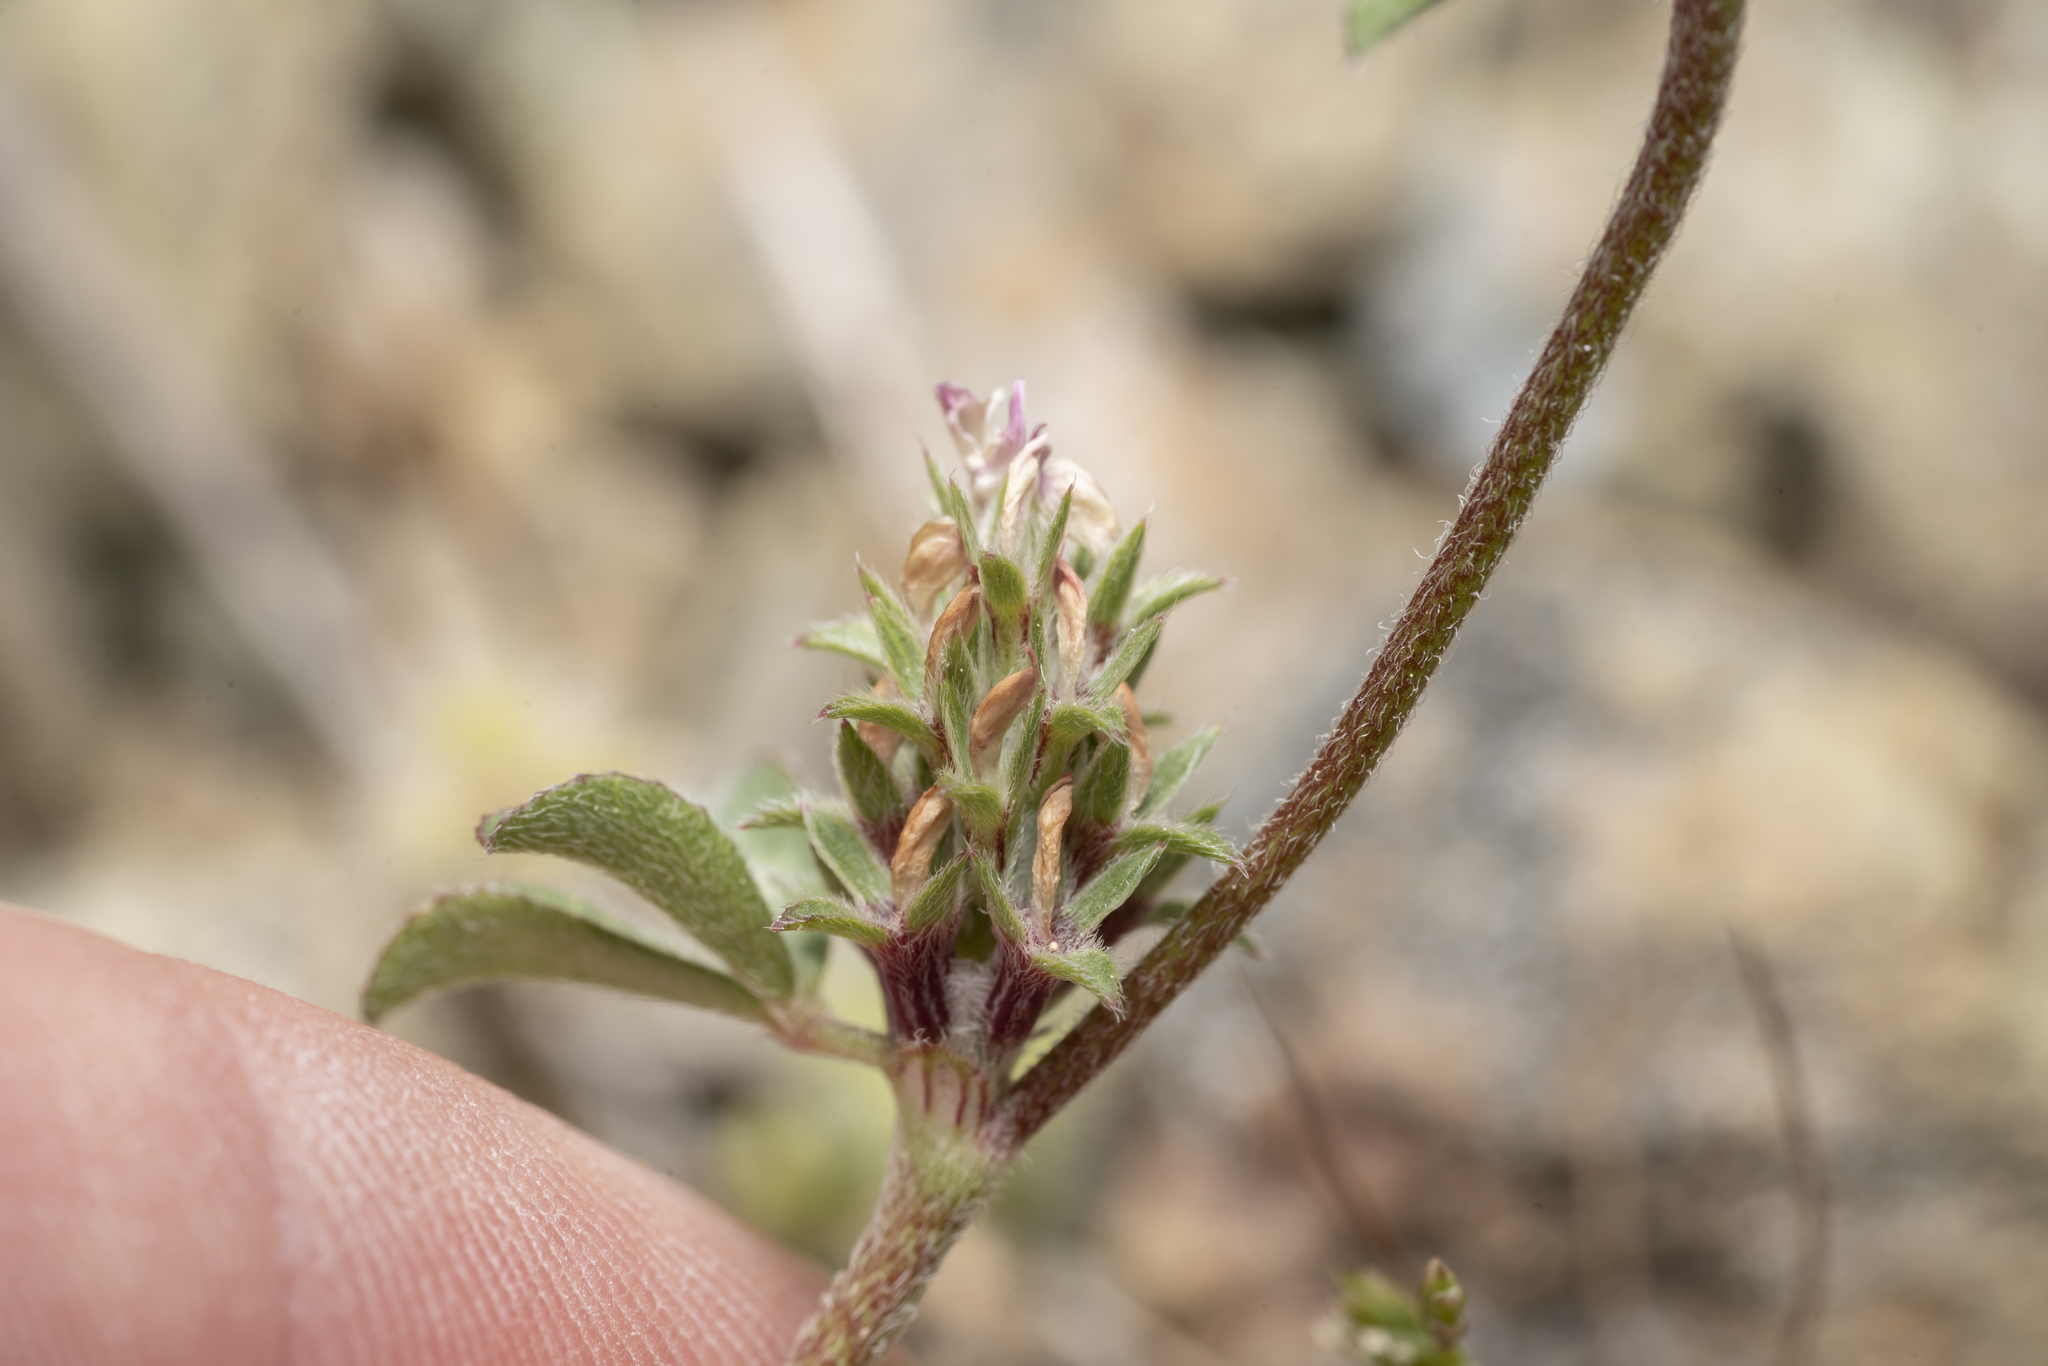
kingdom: Plantae
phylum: Tracheophyta
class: Magnoliopsida
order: Fabales
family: Fabaceae
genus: Trifolium
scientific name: Trifolium scabrum
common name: Rough clover
